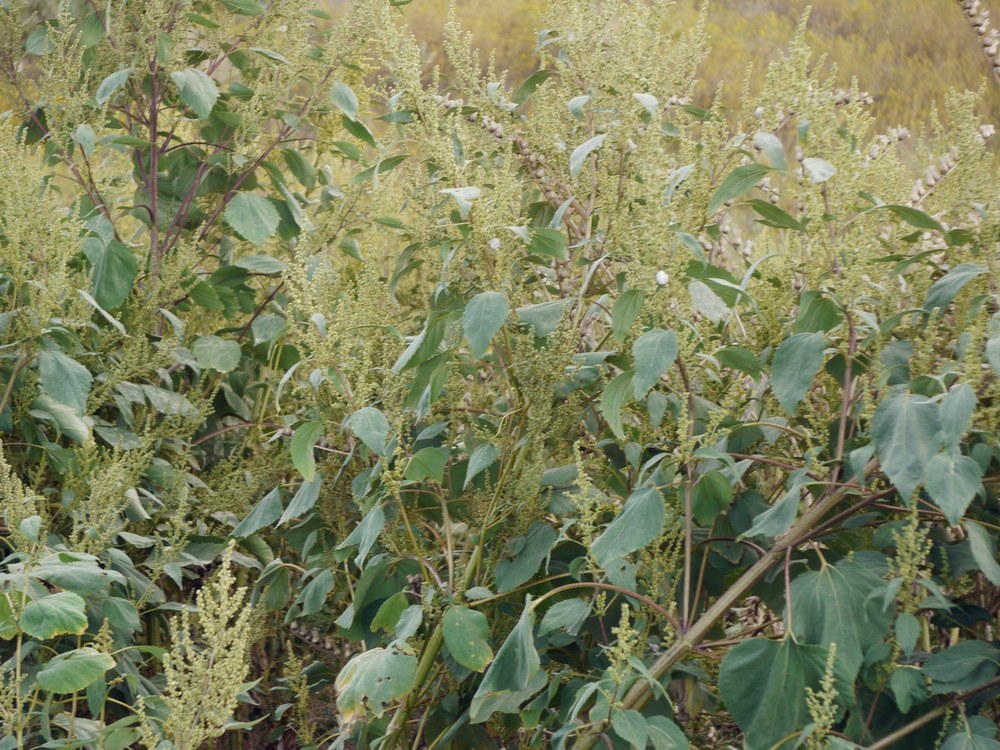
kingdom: Plantae
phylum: Tracheophyta
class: Magnoliopsida
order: Asterales
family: Asteraceae
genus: Cyclachaena
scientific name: Cyclachaena xanthiifolia
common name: Giant sumpweed
